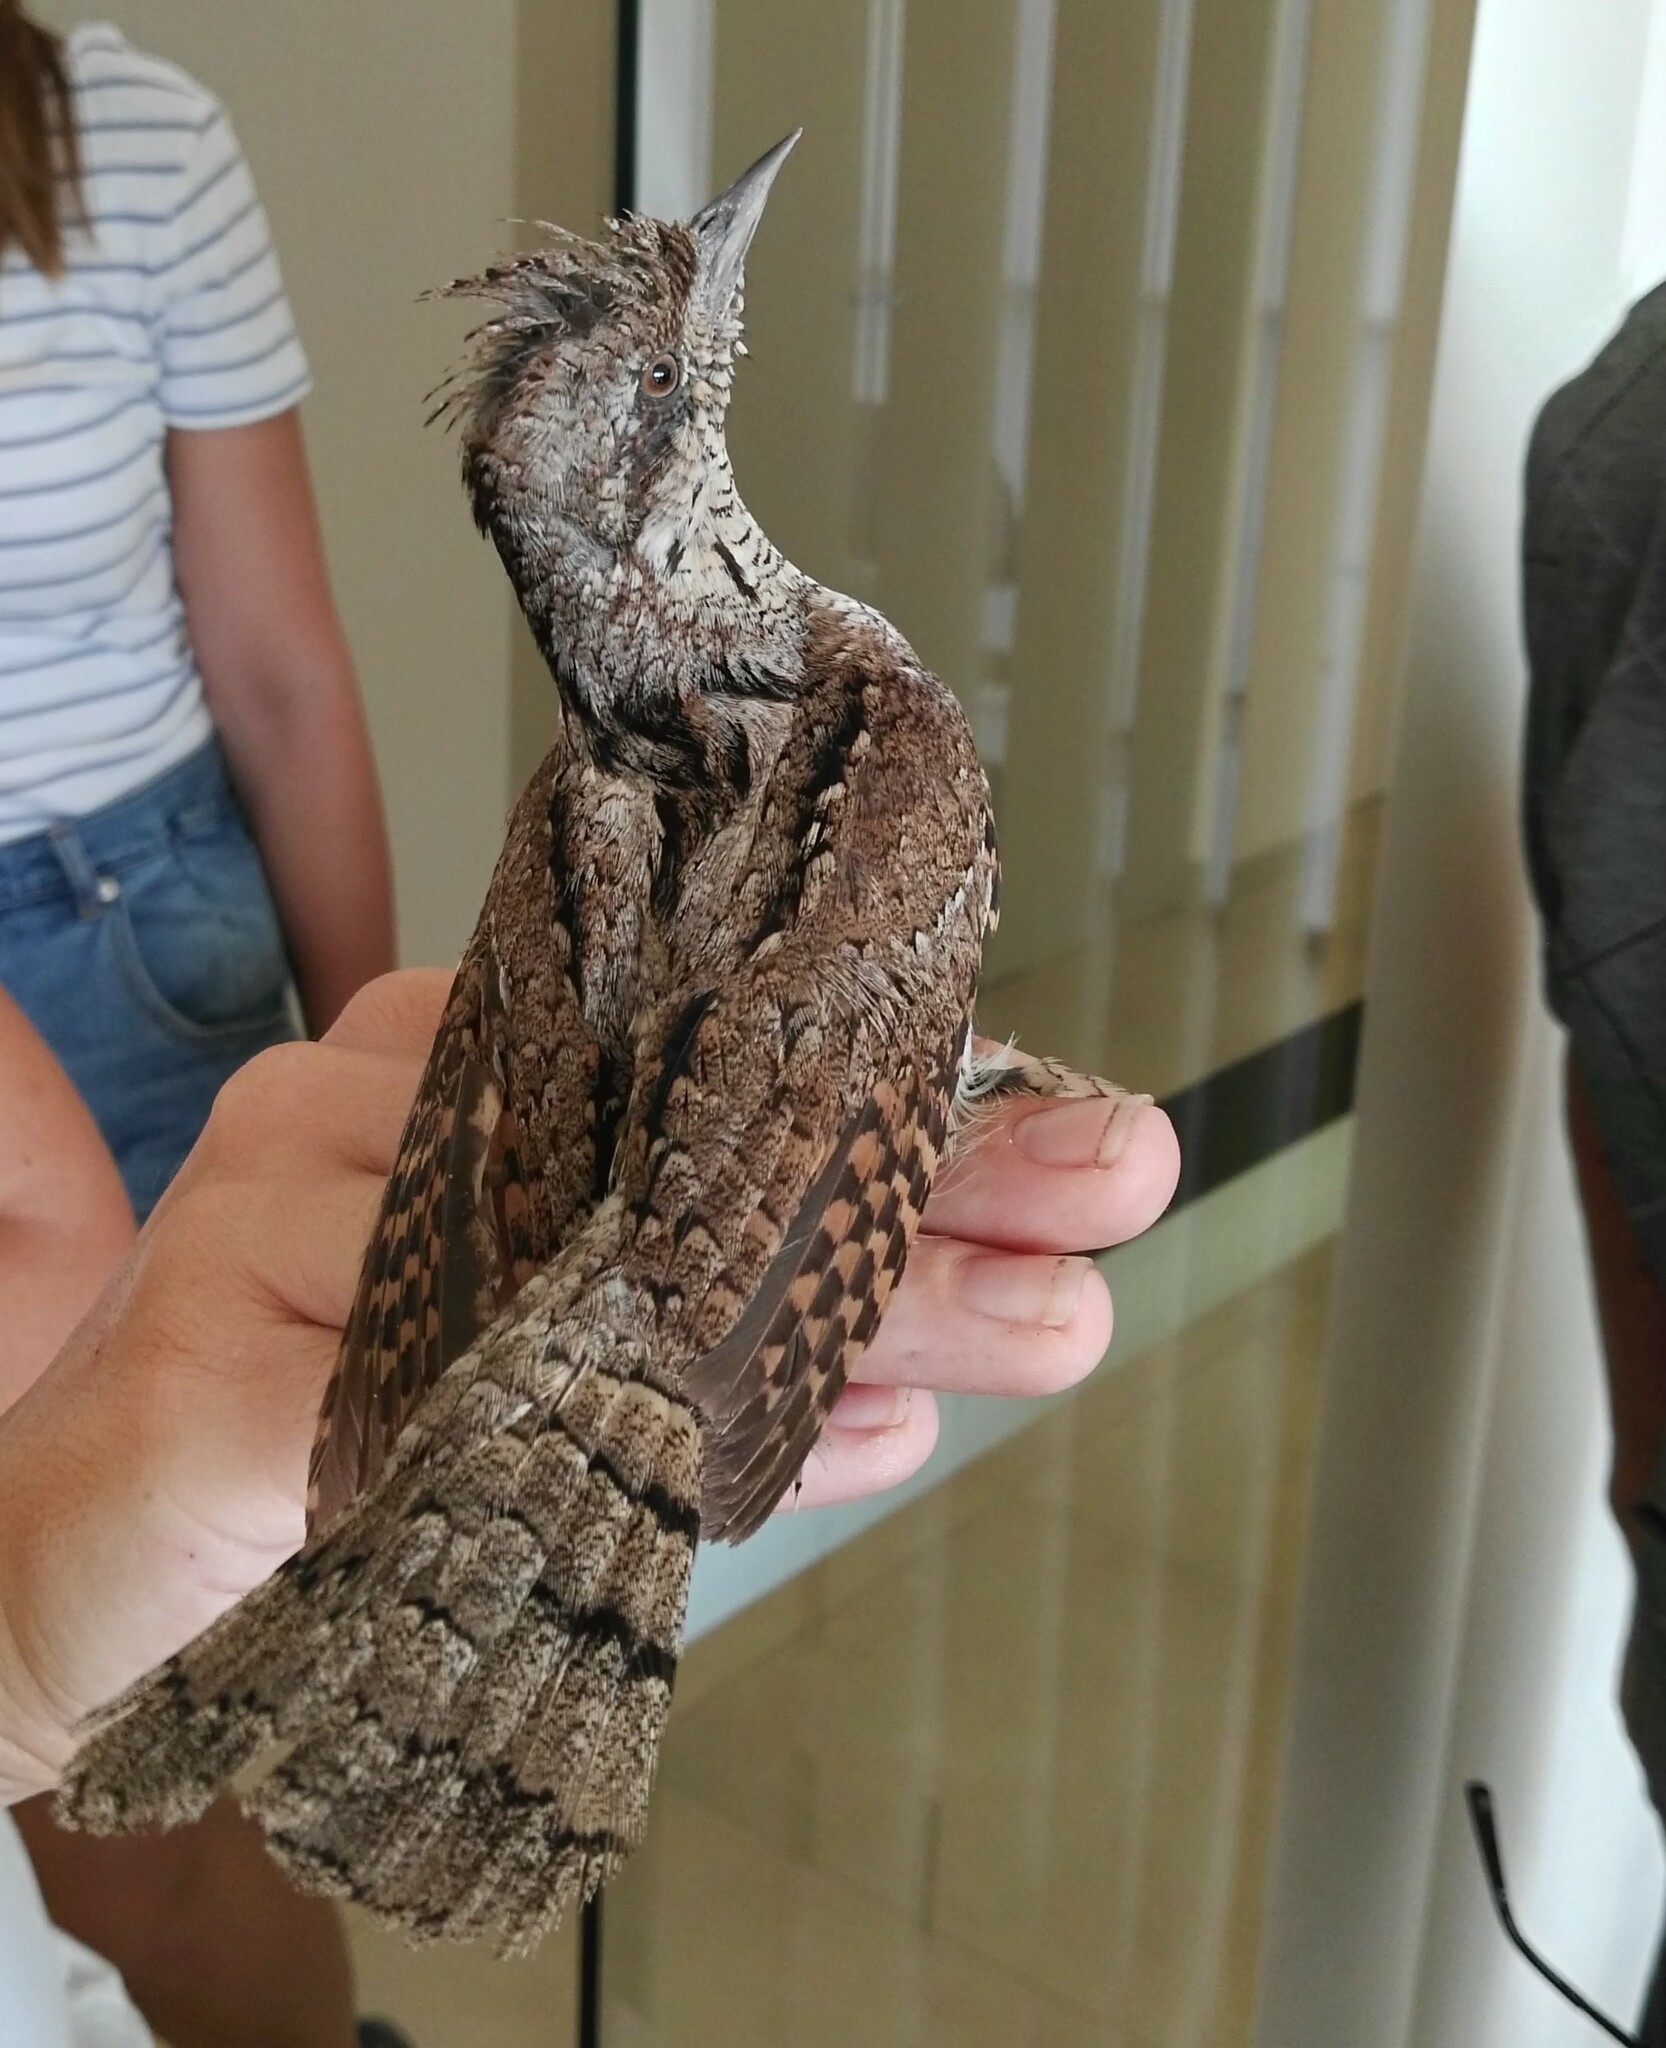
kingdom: Animalia
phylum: Chordata
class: Aves
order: Piciformes
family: Picidae
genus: Jynx
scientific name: Jynx torquilla
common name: Eurasian wryneck
